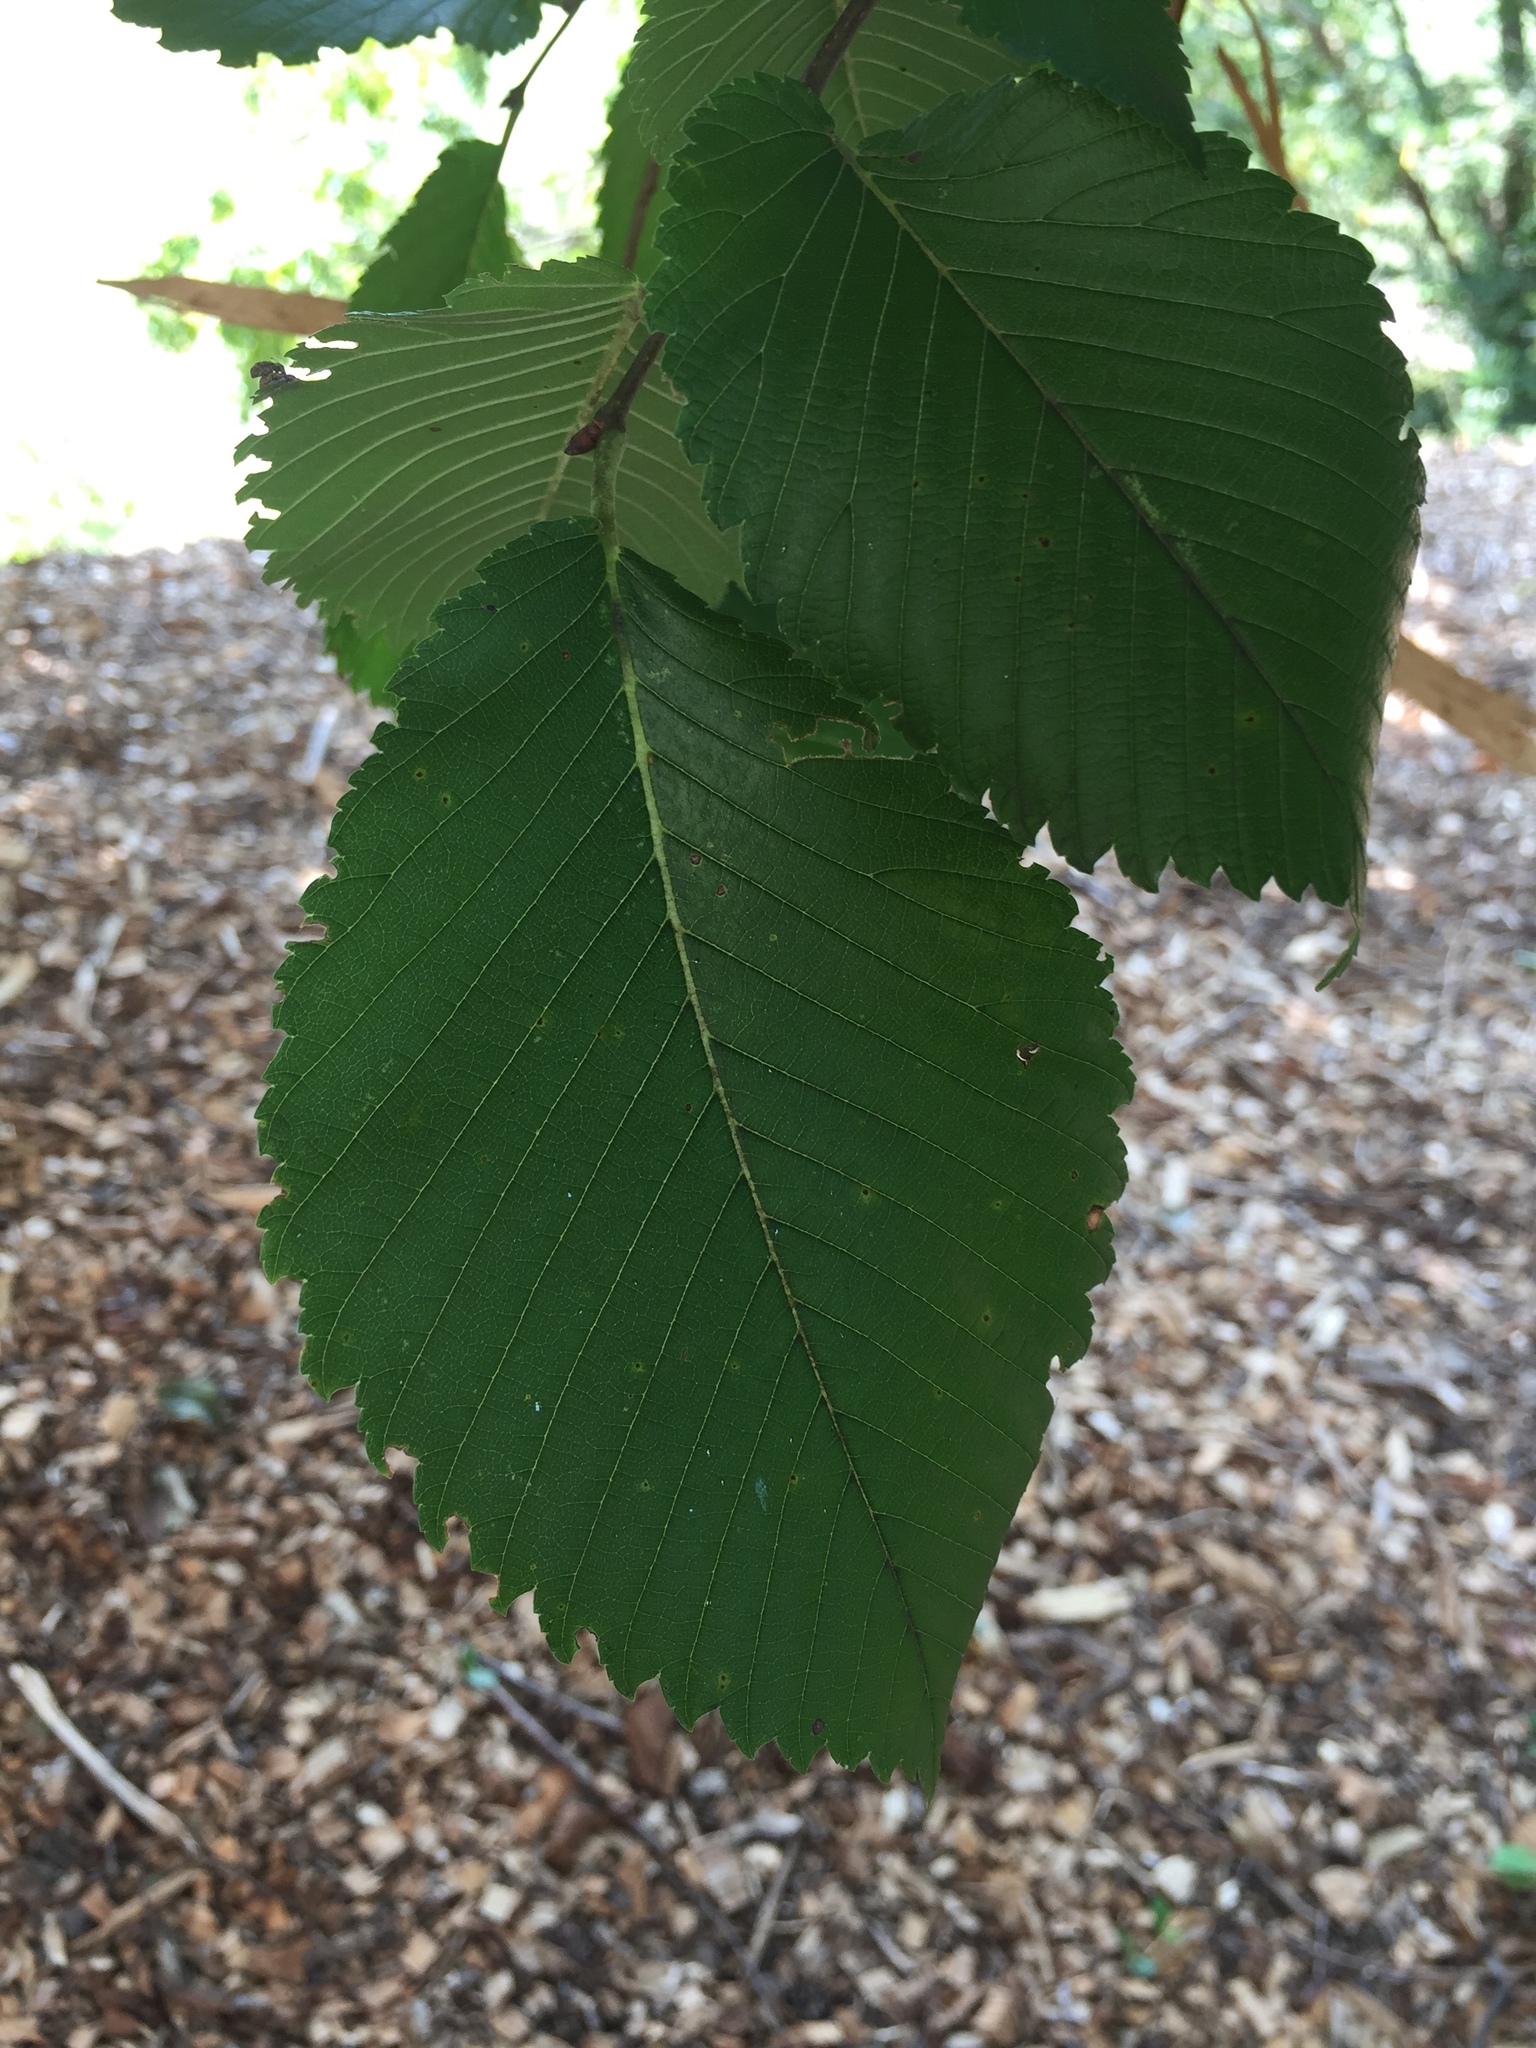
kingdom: Plantae
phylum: Tracheophyta
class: Magnoliopsida
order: Rosales
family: Ulmaceae
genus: Ulmus
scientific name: Ulmus americana
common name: American elm
